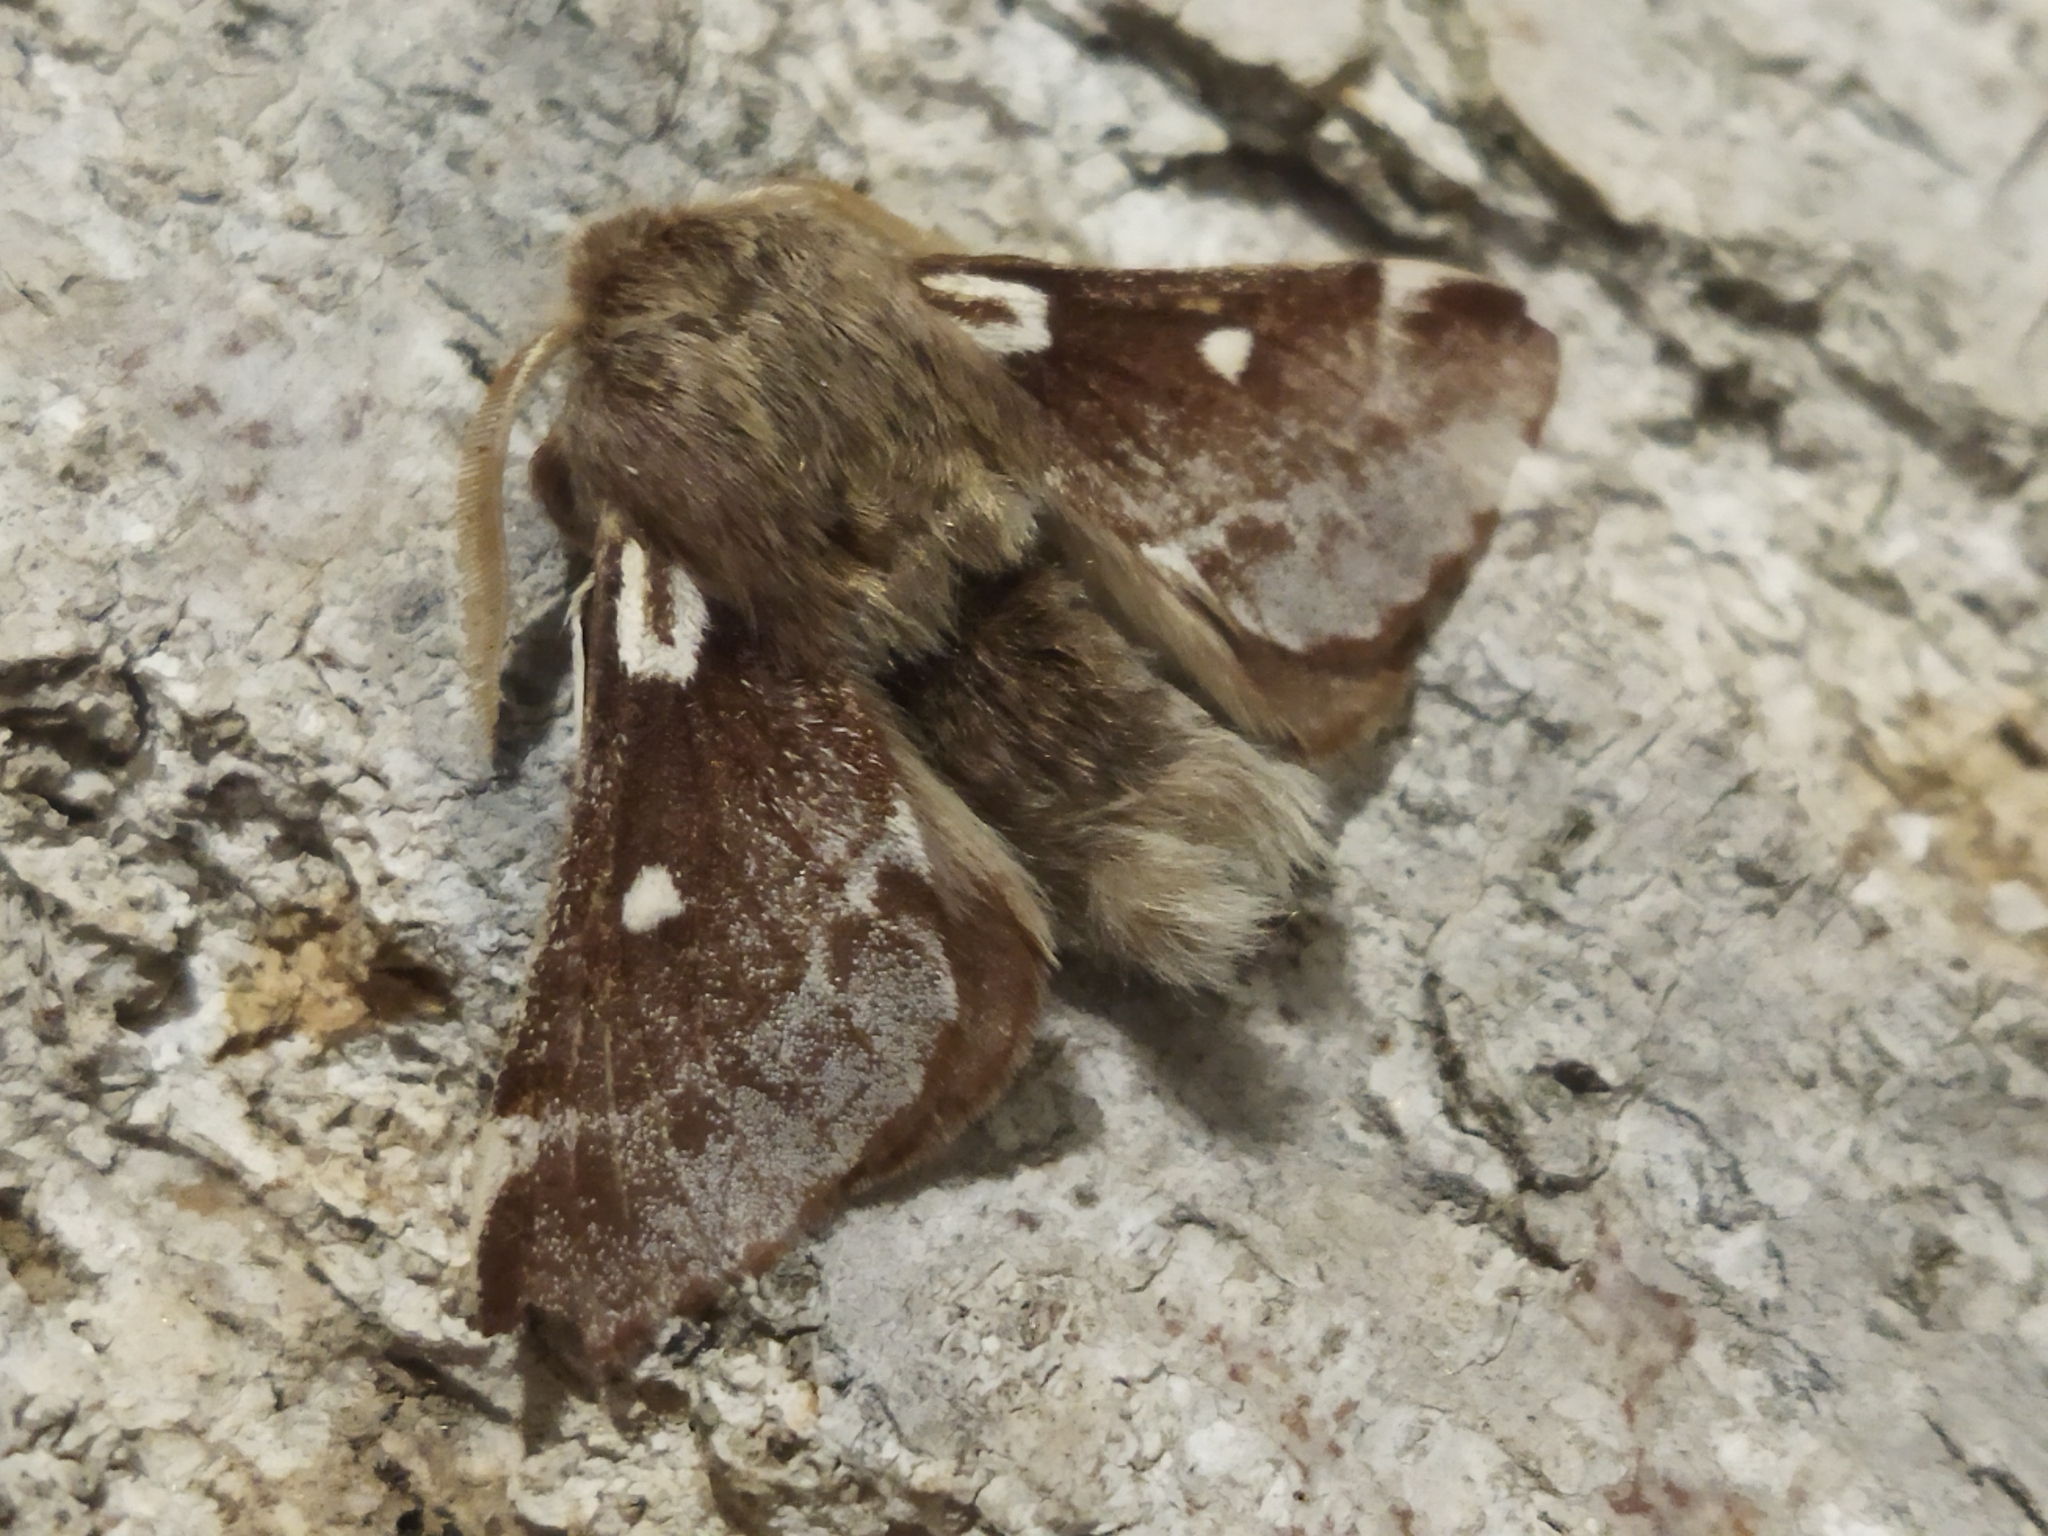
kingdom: Animalia
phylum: Arthropoda
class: Insecta
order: Lepidoptera
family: Lasiocampidae
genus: Eriogaster
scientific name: Eriogaster lanestris
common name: Small eggar
